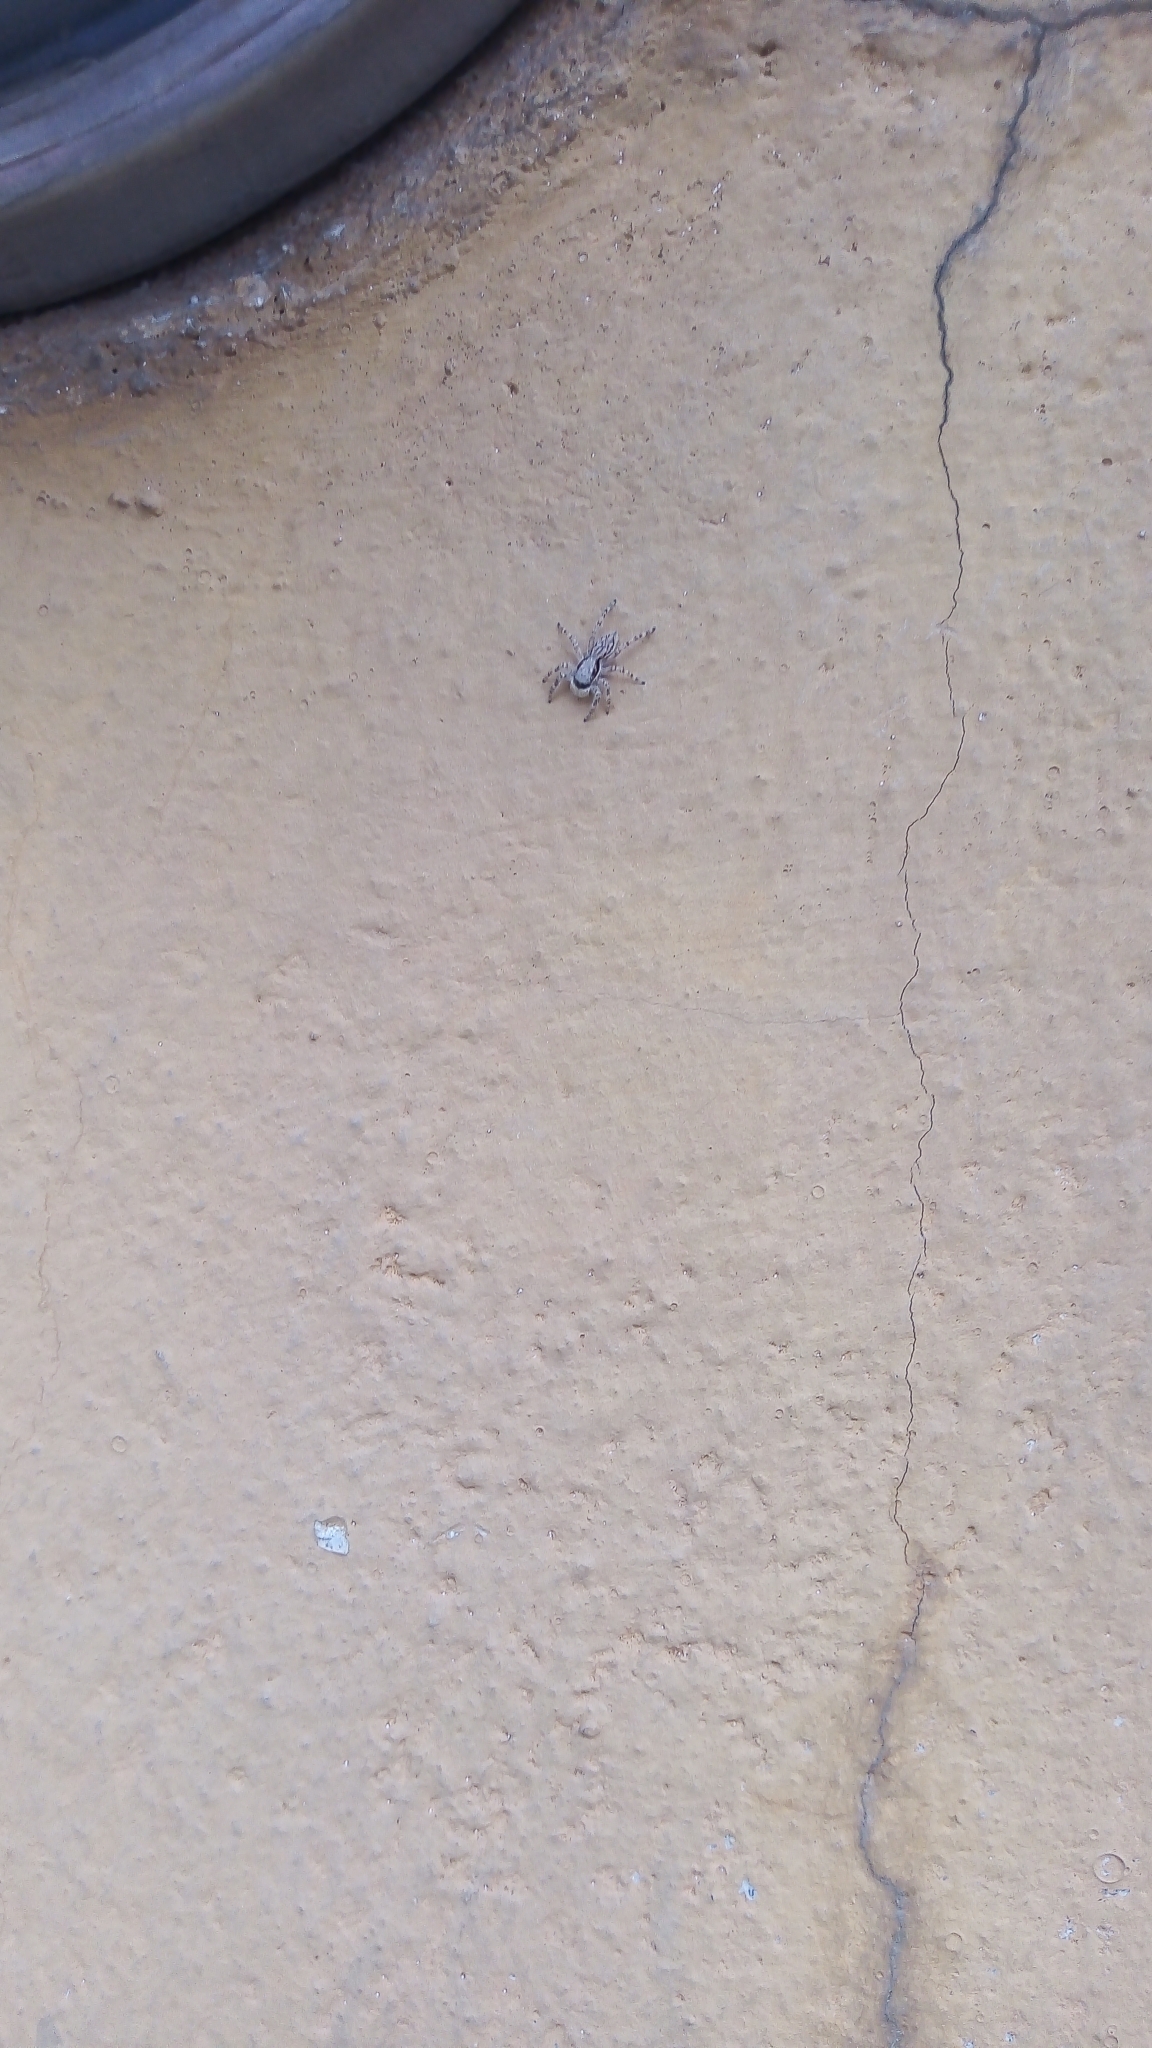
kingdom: Animalia
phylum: Arthropoda
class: Arachnida
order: Araneae
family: Salticidae
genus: Menemerus
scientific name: Menemerus bivittatus
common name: Gray wall jumper
